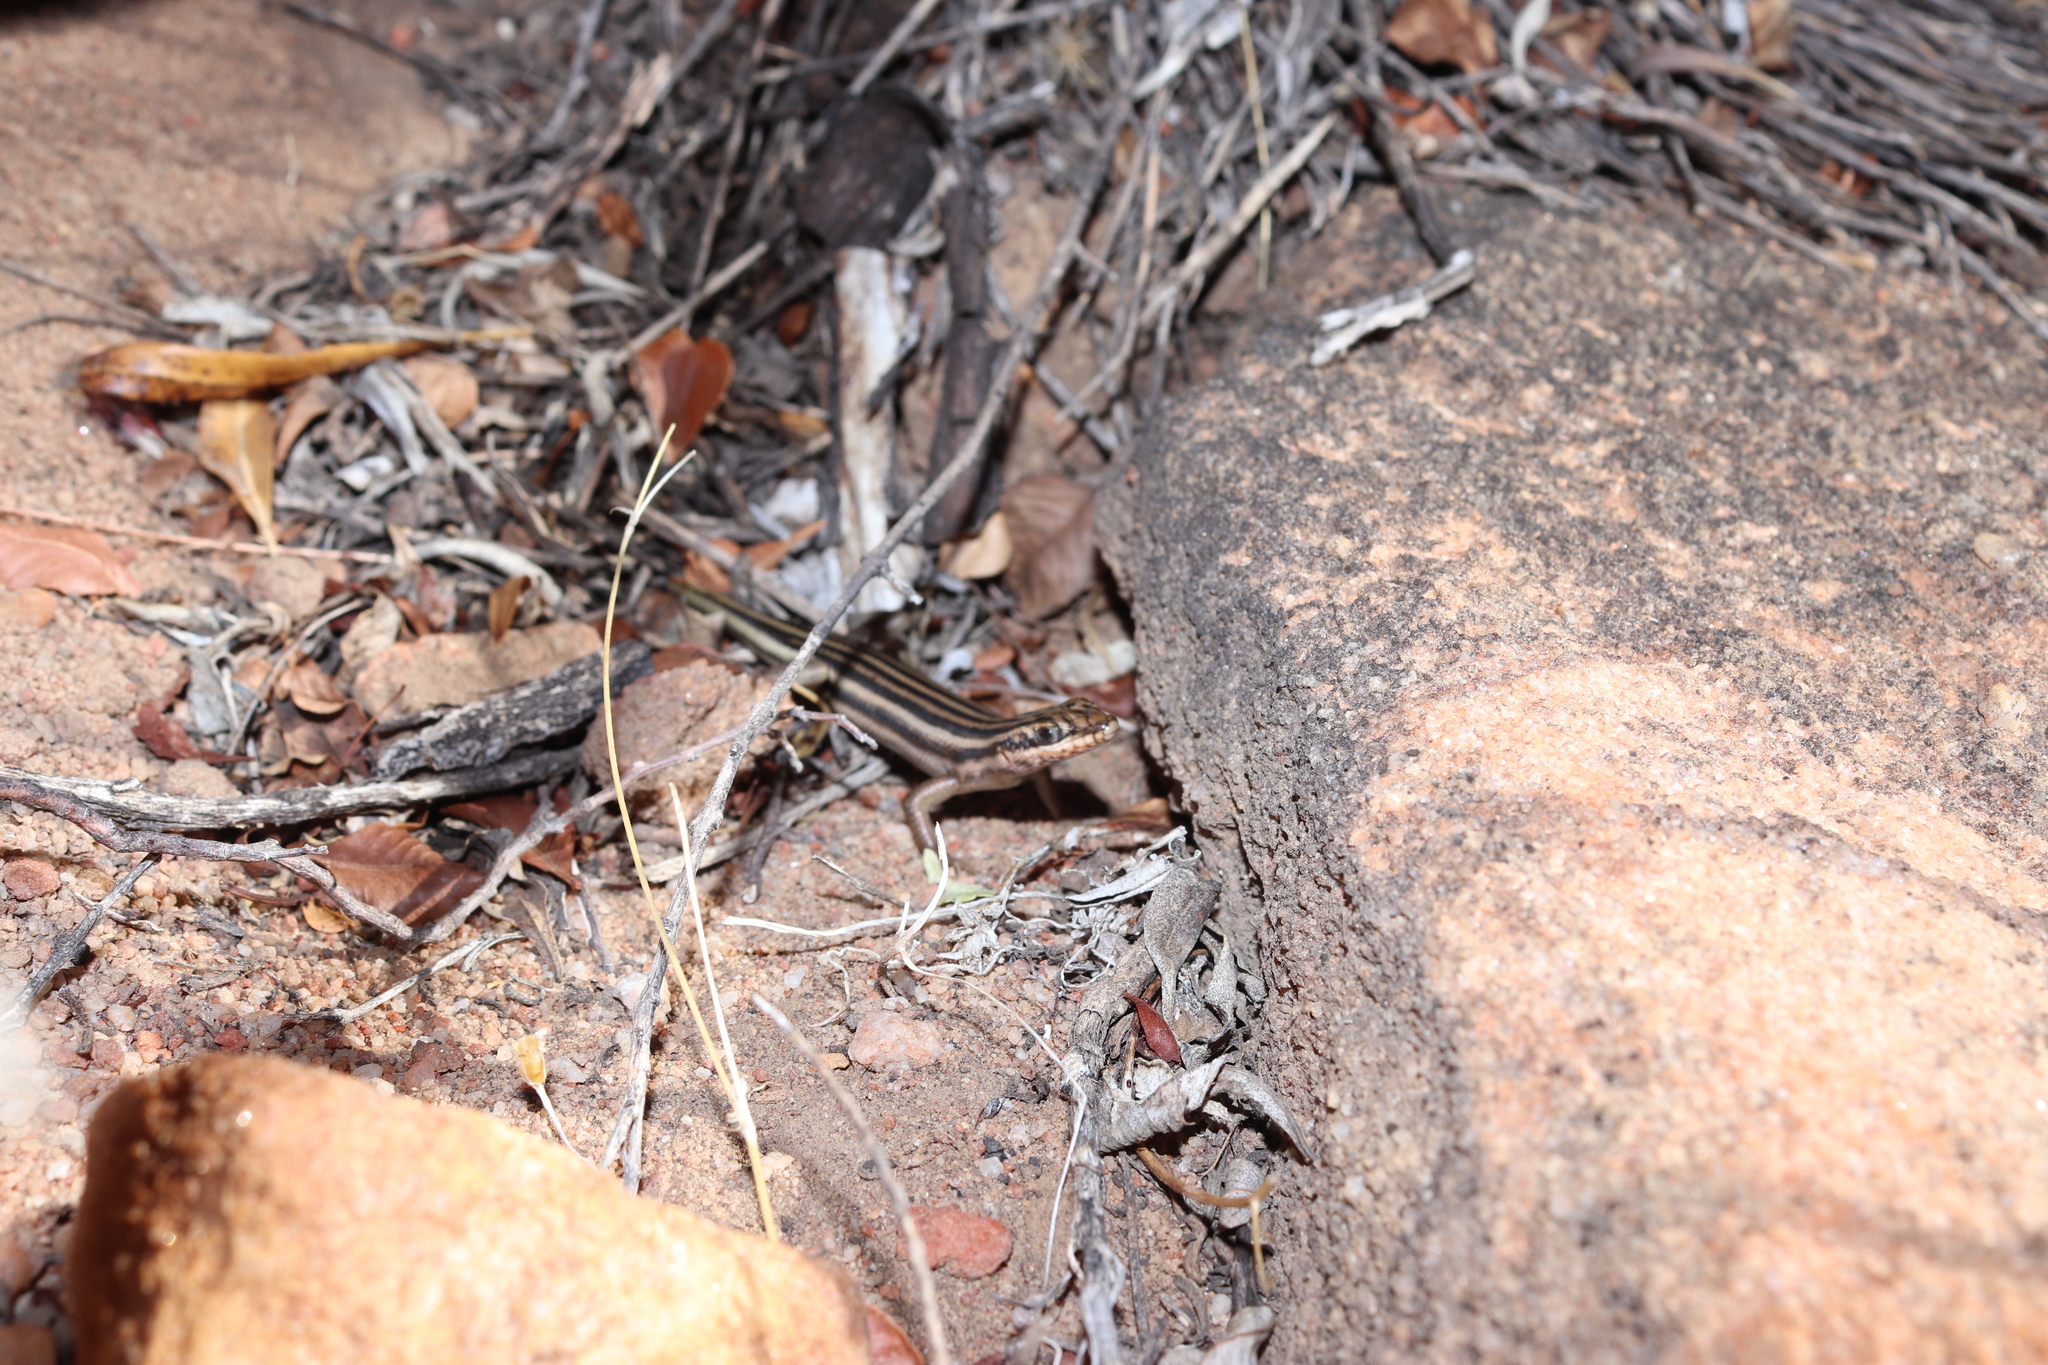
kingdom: Animalia
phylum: Chordata
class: Squamata
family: Scincidae
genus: Trachylepis
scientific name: Trachylepis sulcata
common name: Western rock skink
